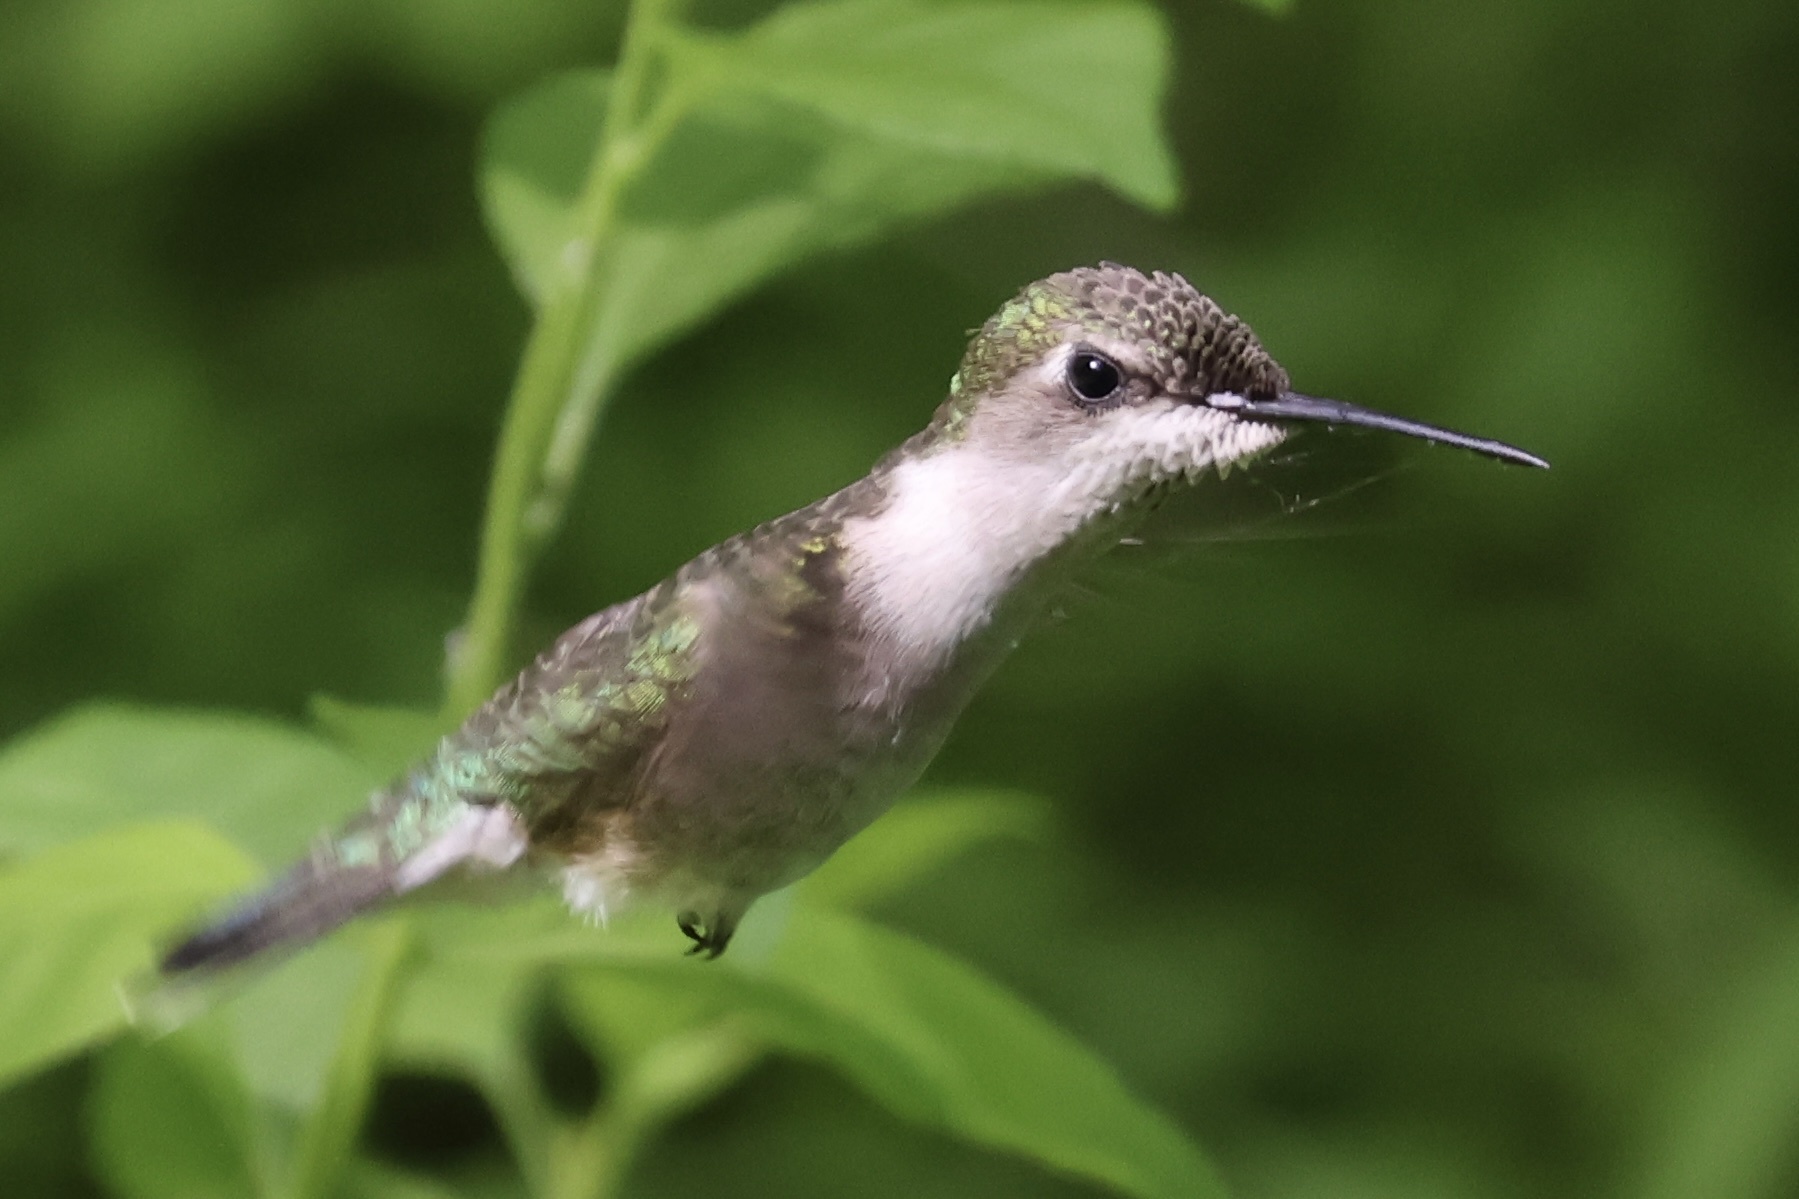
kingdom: Animalia
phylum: Chordata
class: Aves
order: Apodiformes
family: Trochilidae
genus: Archilochus
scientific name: Archilochus colubris
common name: Ruby-throated hummingbird
